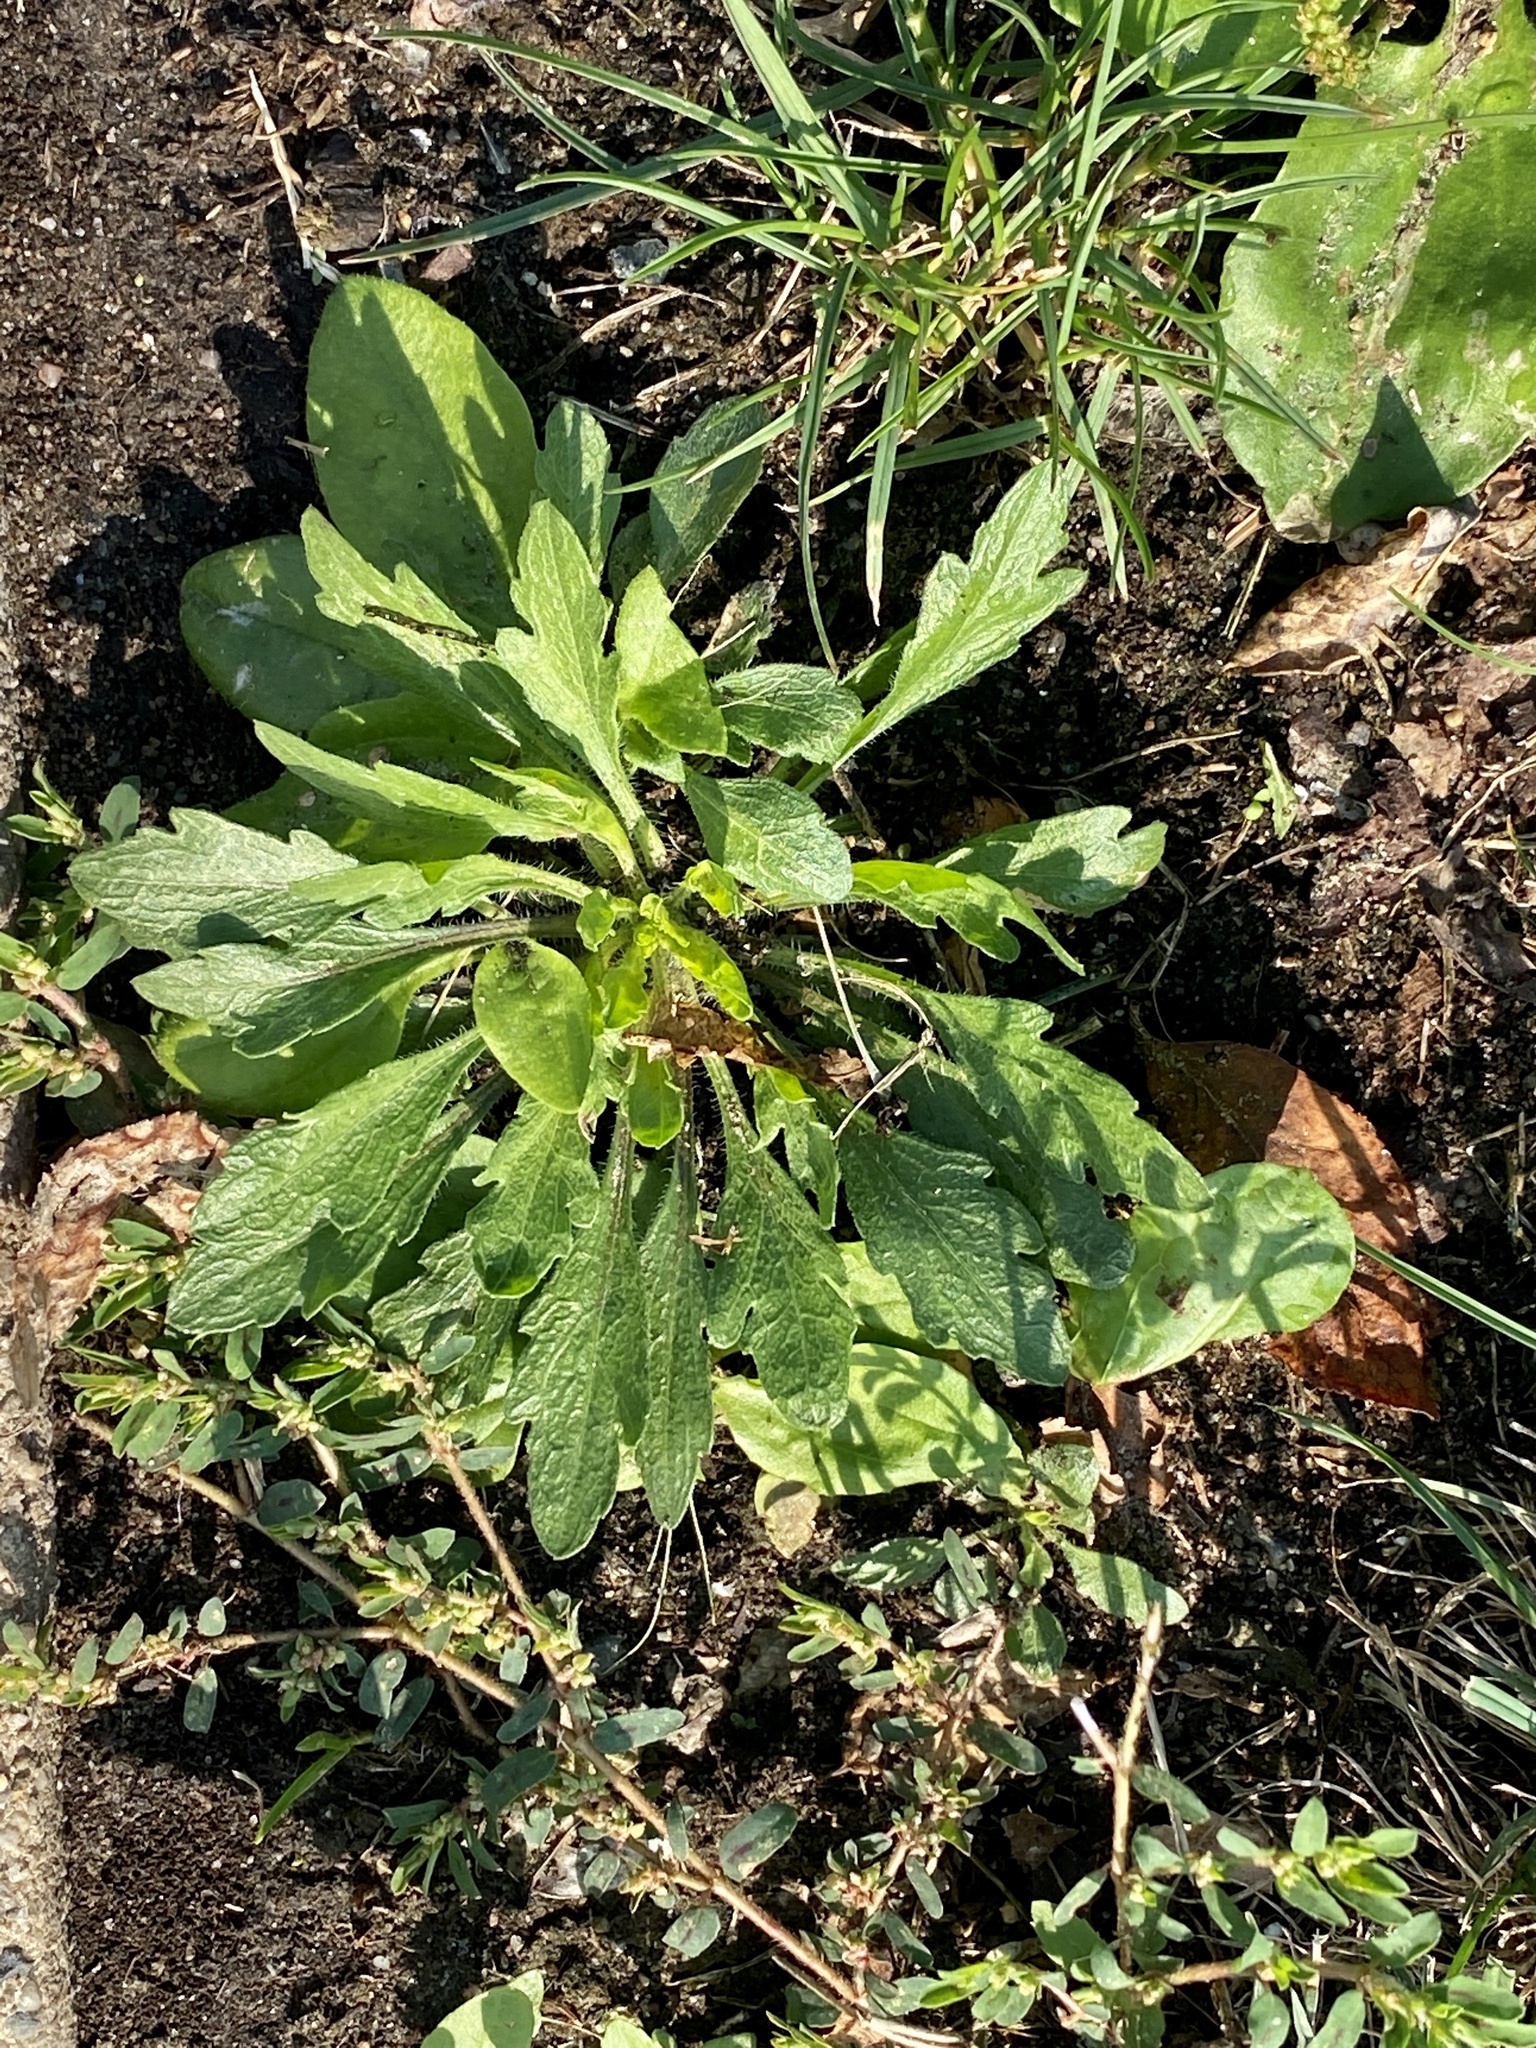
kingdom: Plantae
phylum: Tracheophyta
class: Magnoliopsida
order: Asterales
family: Asteraceae
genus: Erigeron
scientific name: Erigeron canadensis
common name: Canadian fleabane
